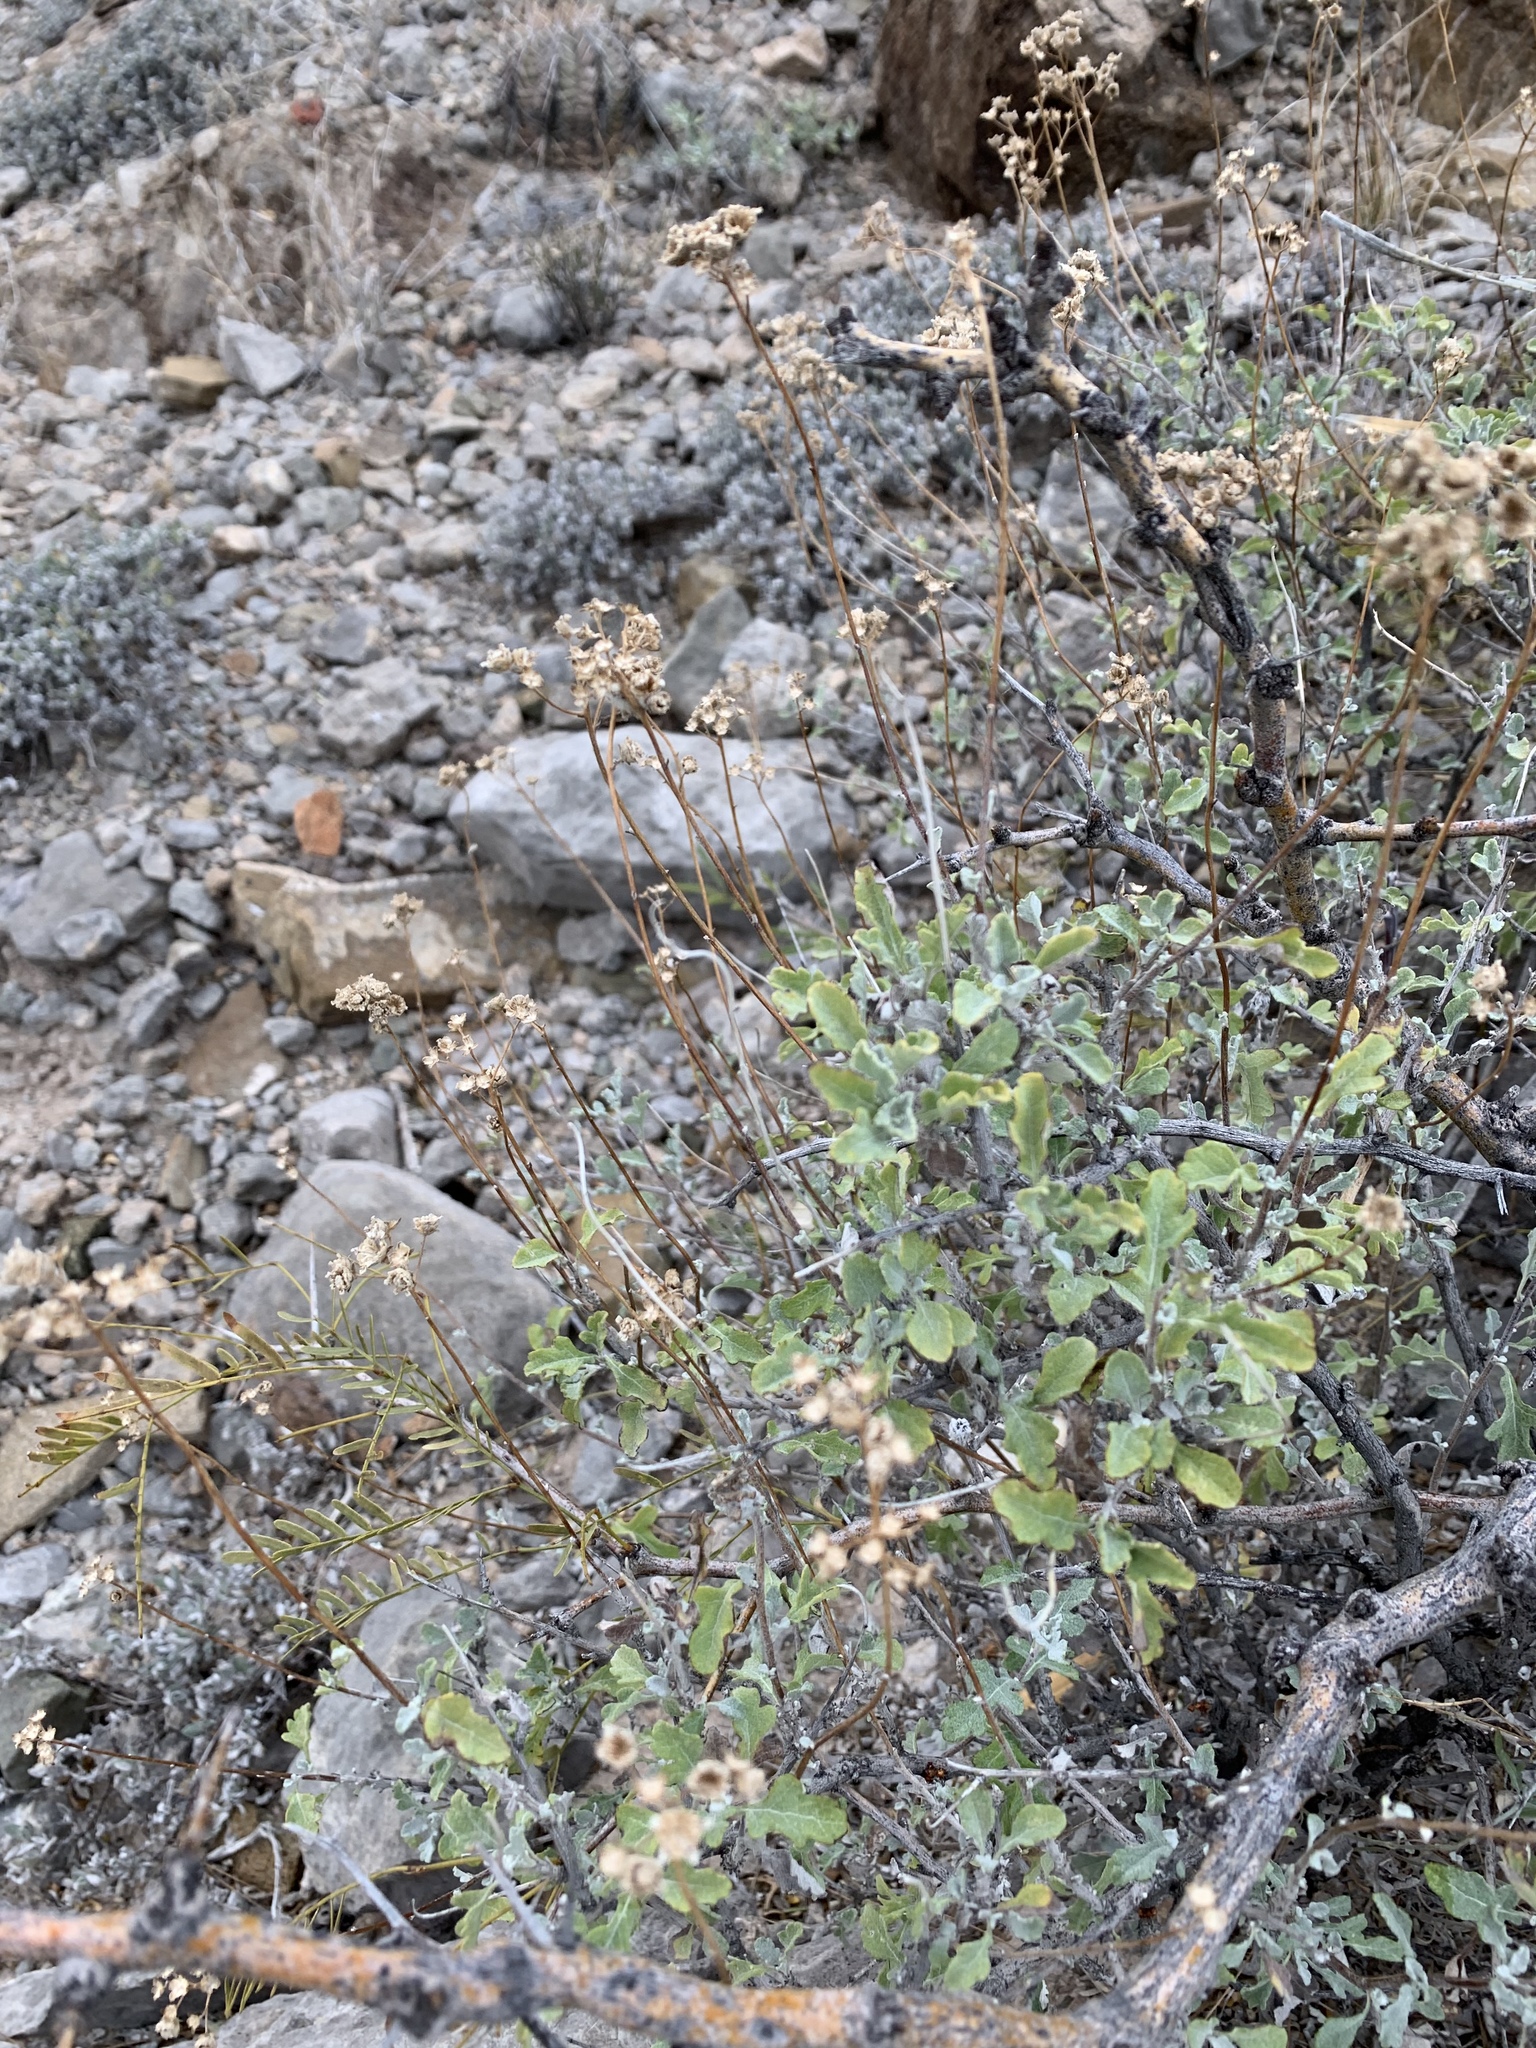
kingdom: Plantae
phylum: Tracheophyta
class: Magnoliopsida
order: Asterales
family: Asteraceae
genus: Parthenium
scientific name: Parthenium incanum
